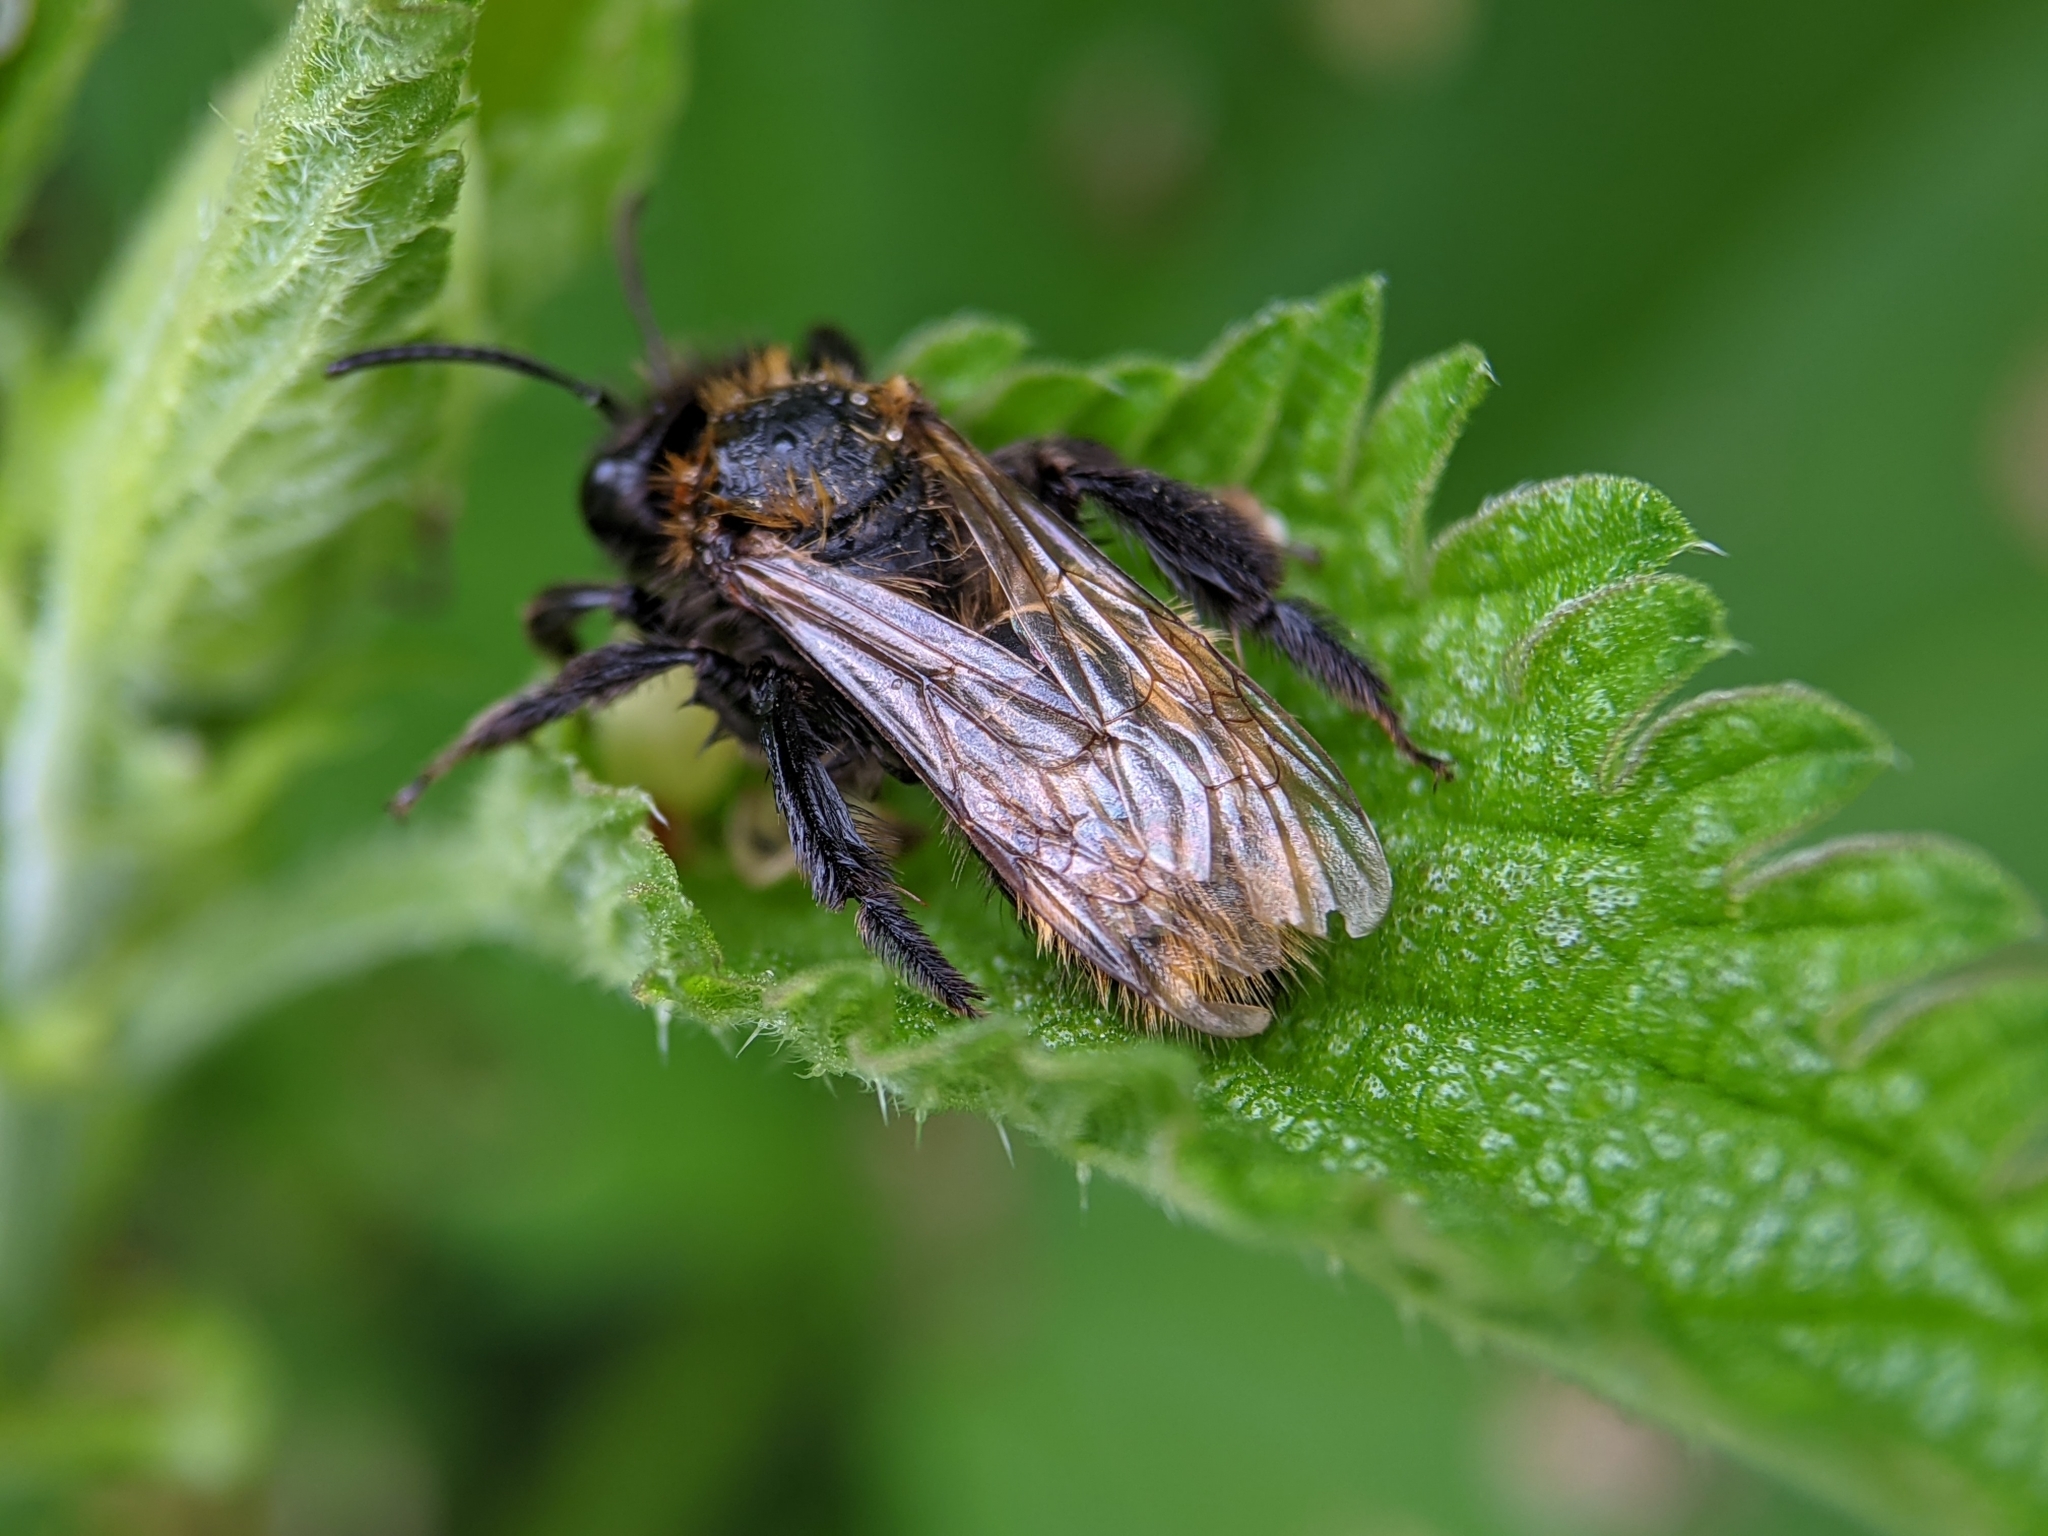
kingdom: Animalia
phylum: Arthropoda
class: Insecta
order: Hymenoptera
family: Andrenidae
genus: Andrena
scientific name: Andrena fulva
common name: Tawny mining bee
